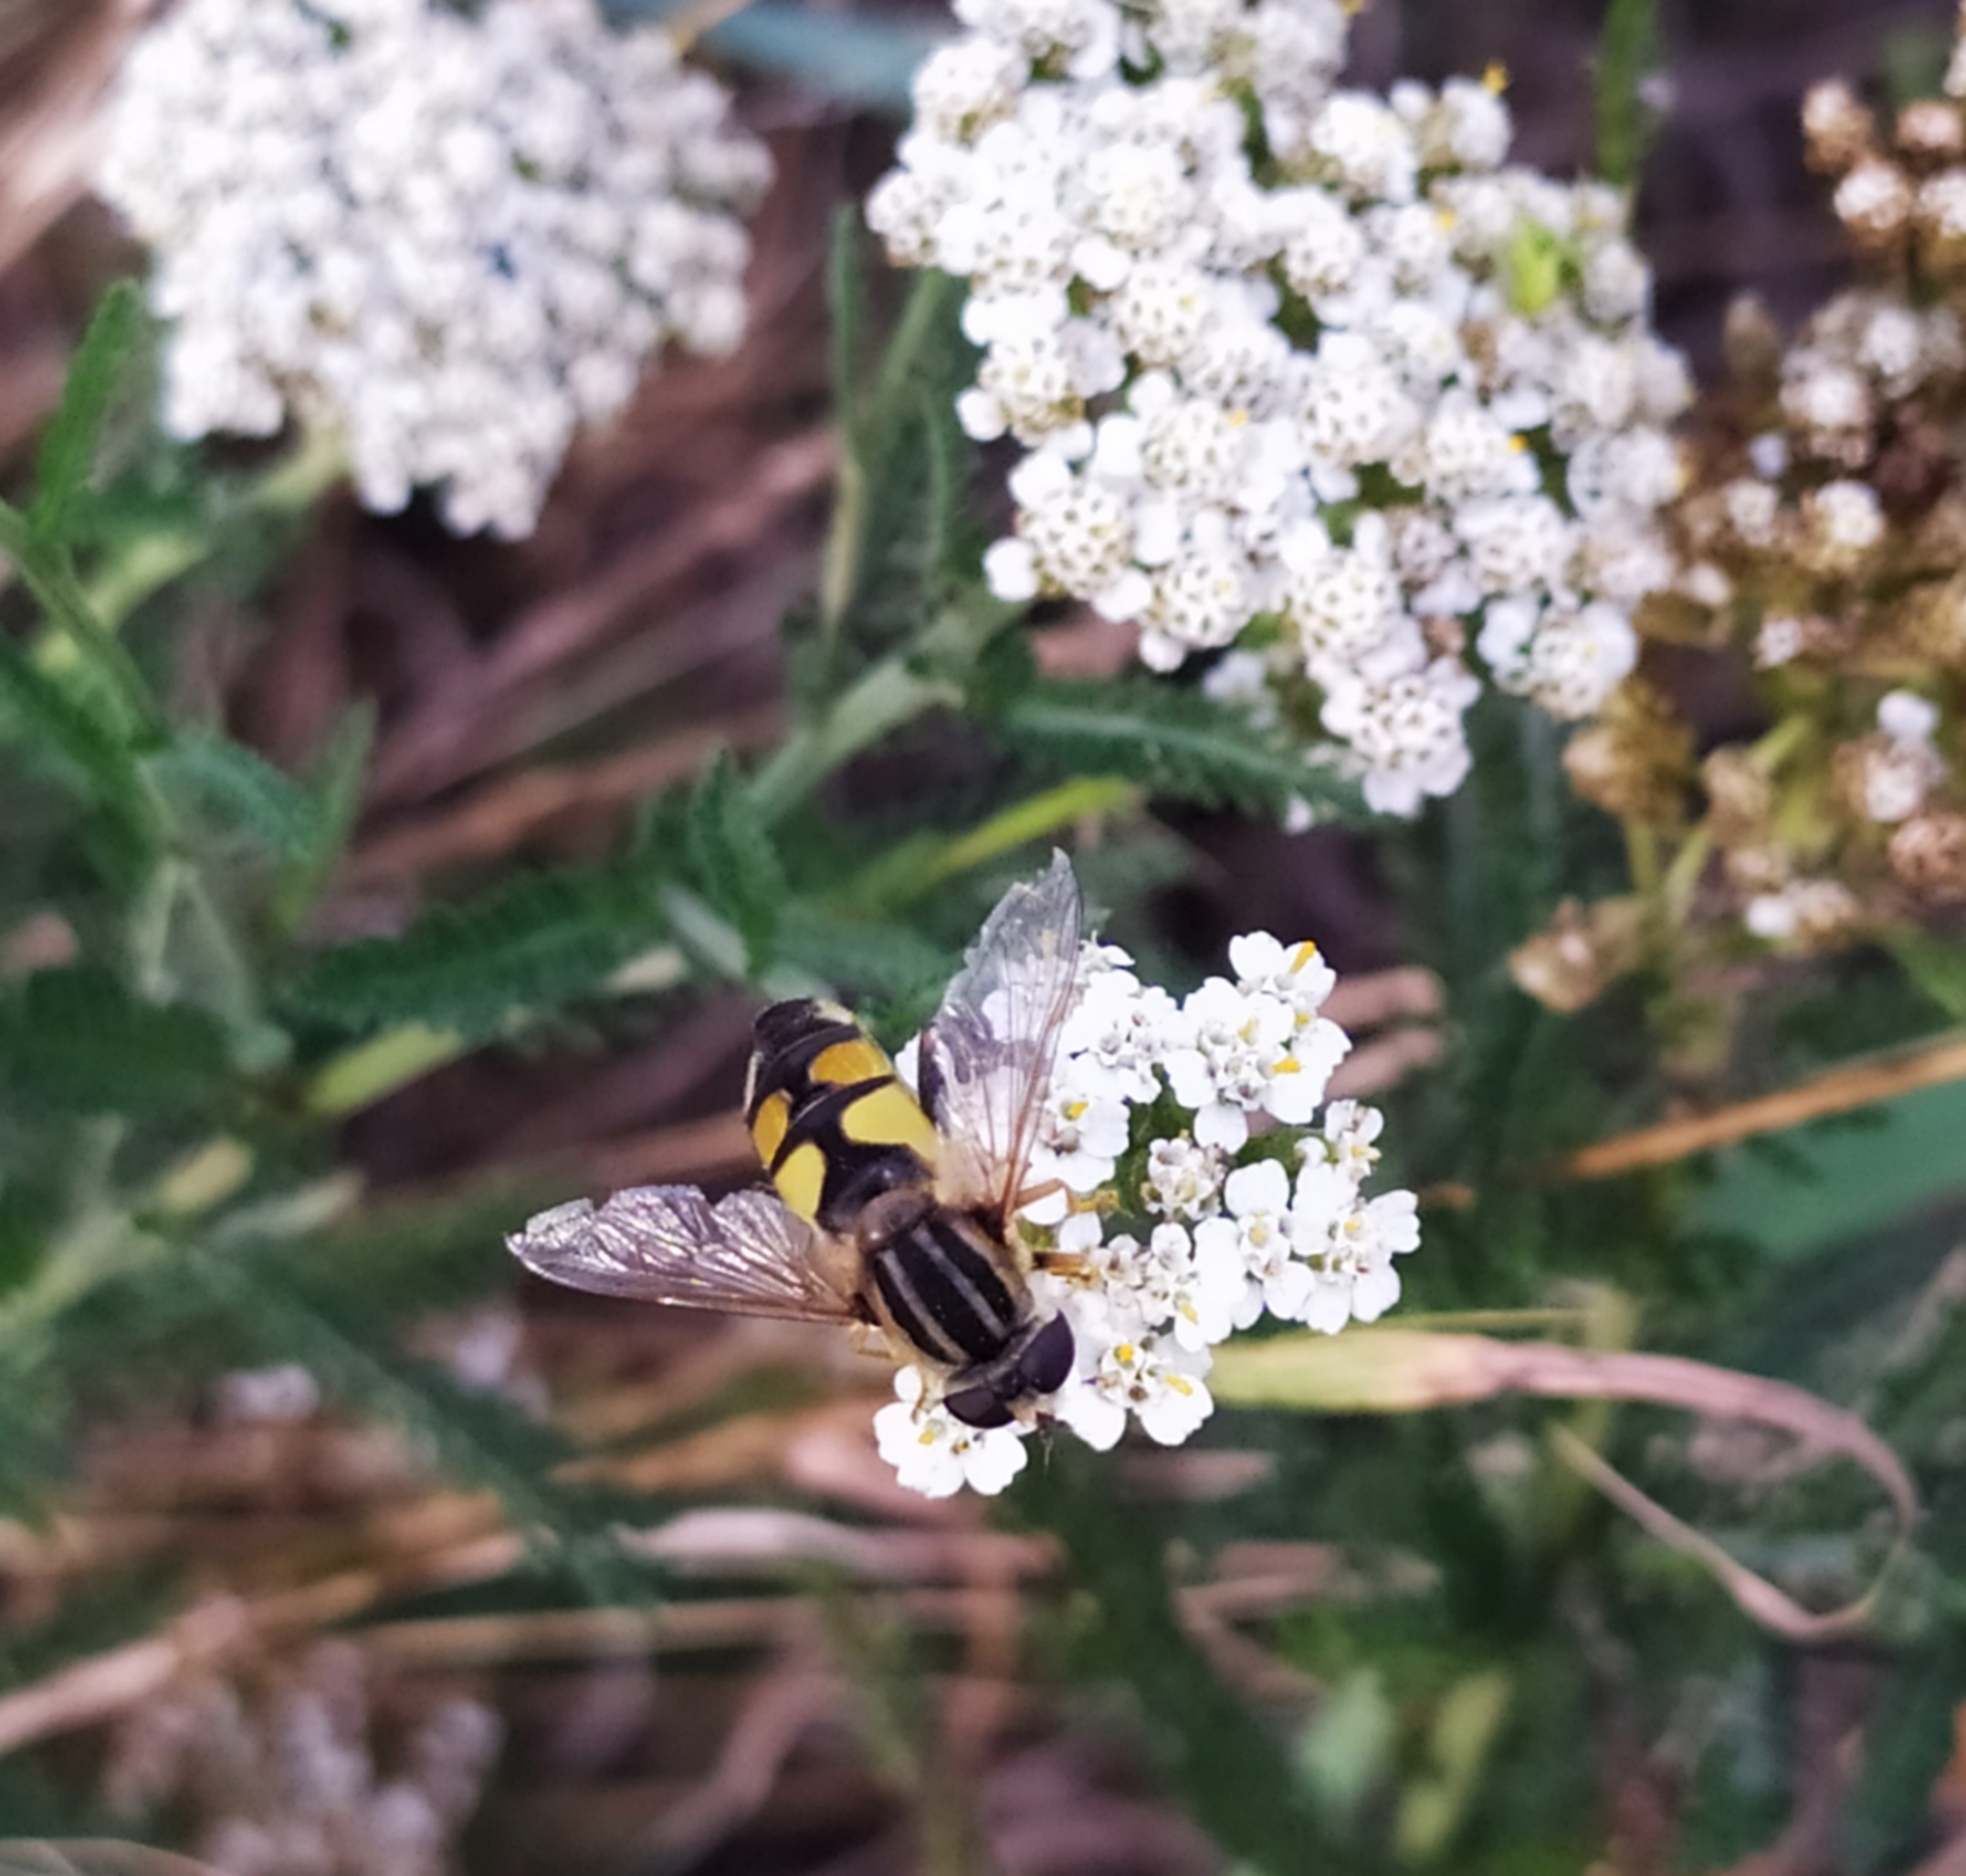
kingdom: Animalia
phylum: Arthropoda
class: Insecta
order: Diptera
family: Syrphidae
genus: Helophilus
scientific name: Helophilus trivittatus
